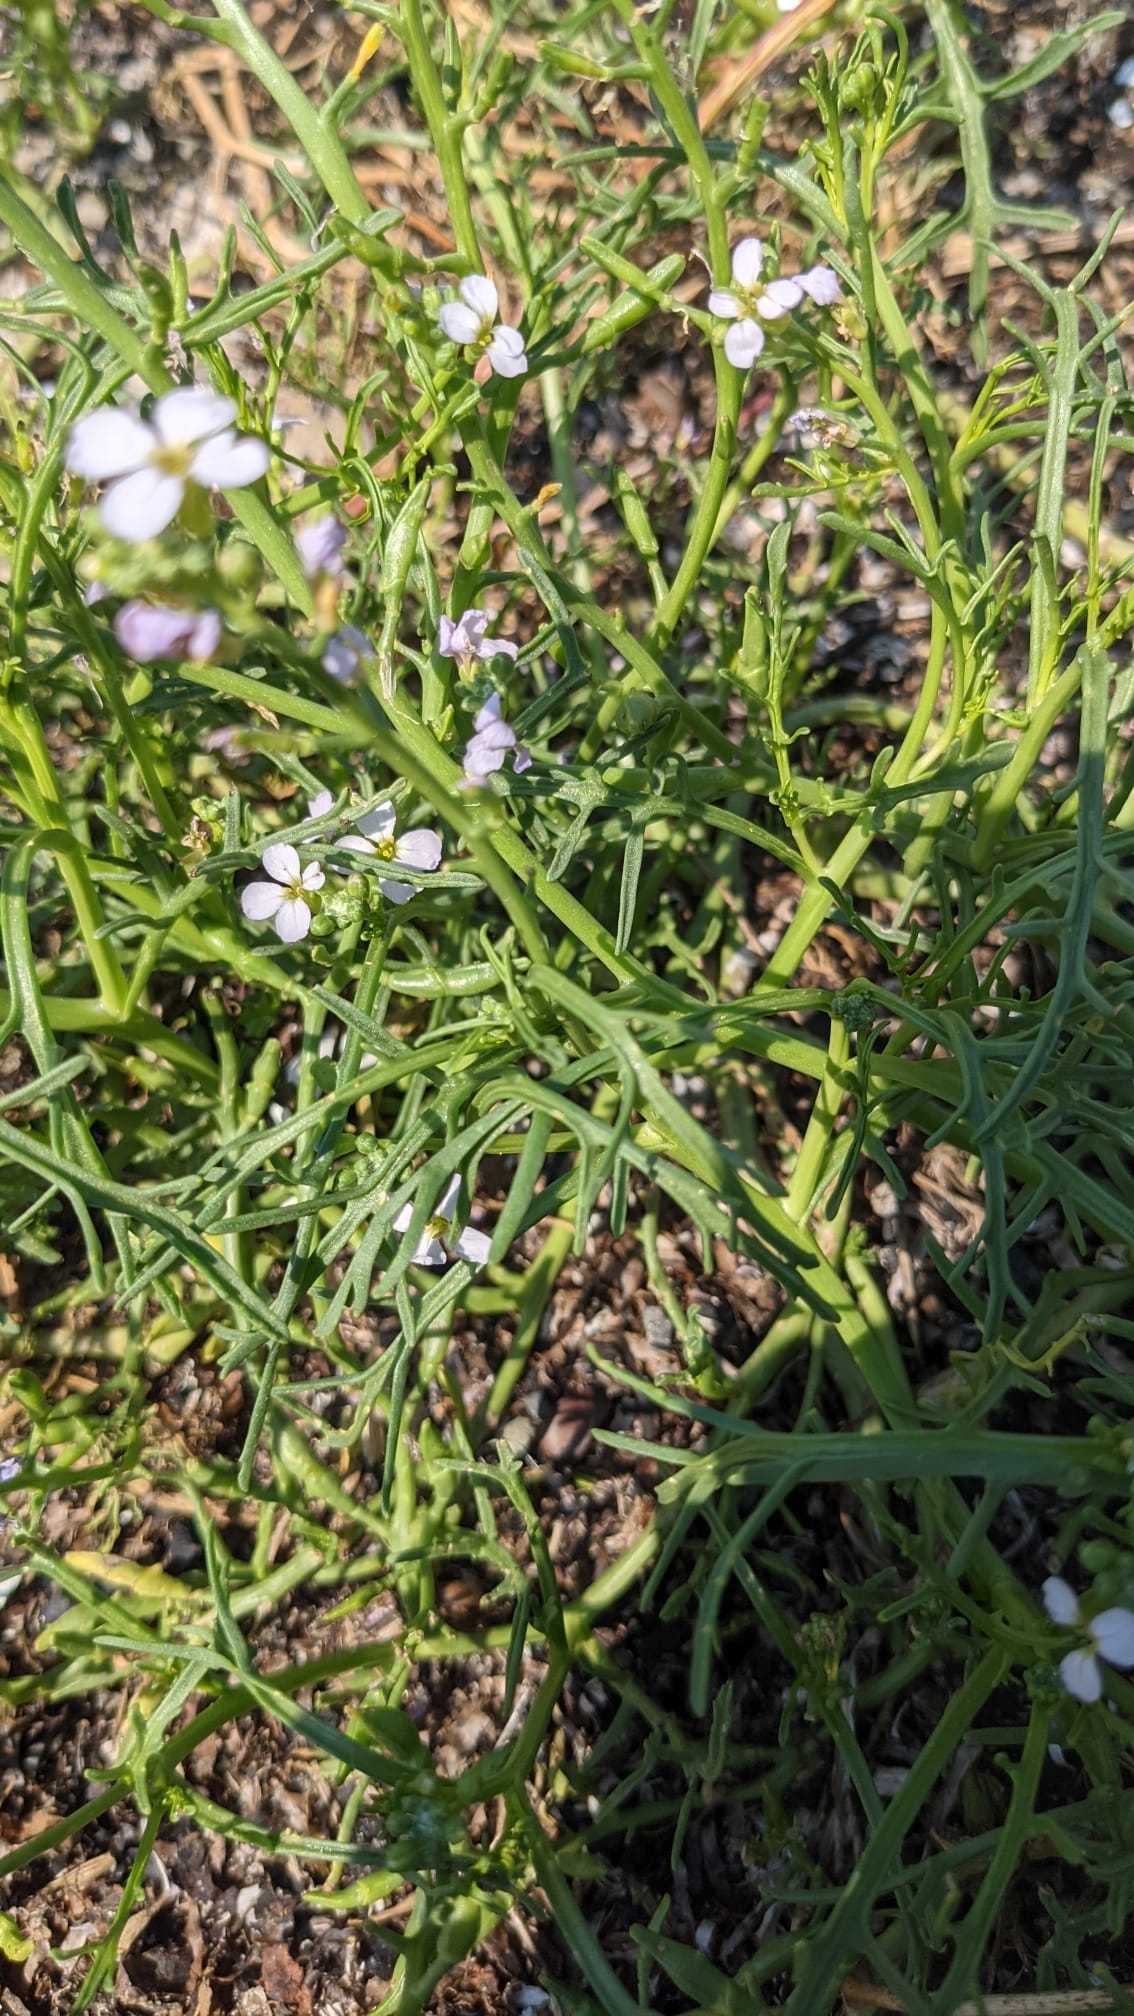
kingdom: Plantae
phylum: Tracheophyta
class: Magnoliopsida
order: Brassicales
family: Brassicaceae
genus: Cakile
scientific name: Cakile maritima
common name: Sea rocket
